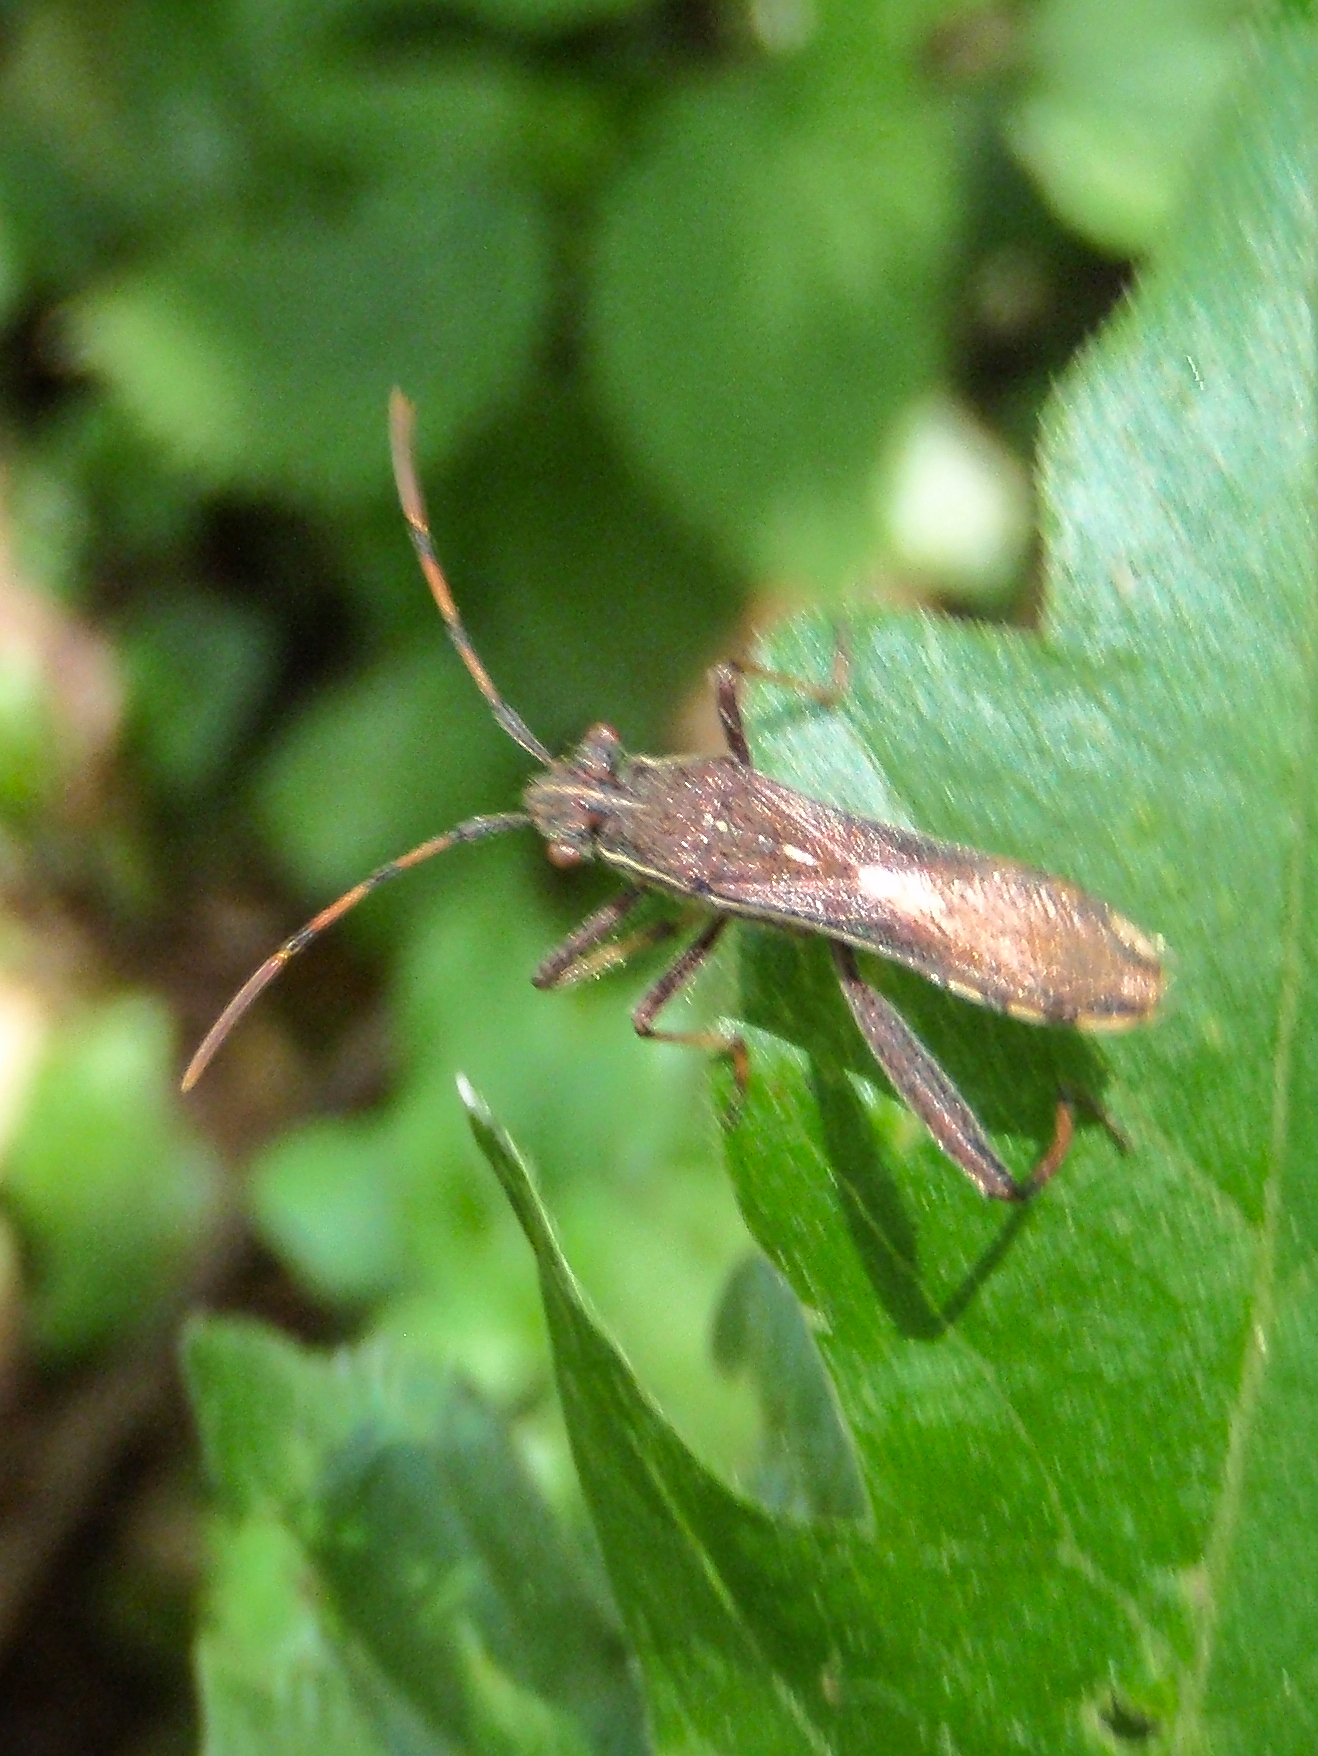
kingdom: Animalia
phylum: Arthropoda
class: Insecta
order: Hemiptera
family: Alydidae
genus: Camptopus
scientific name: Camptopus lateralis
